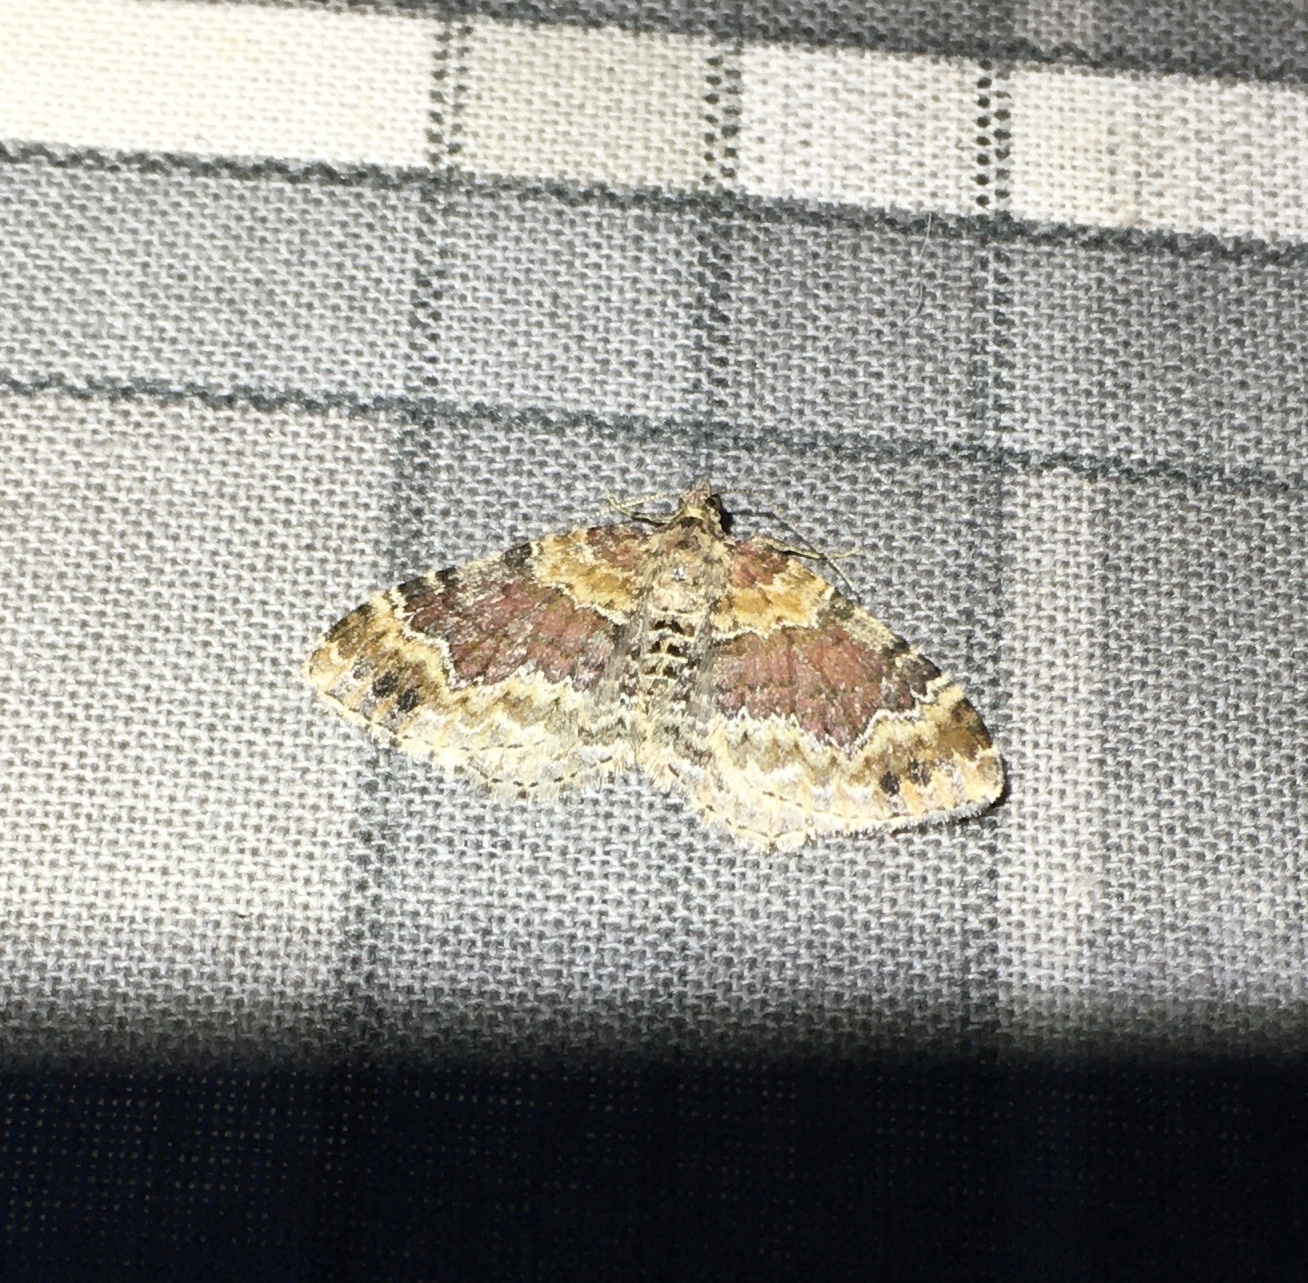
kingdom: Animalia
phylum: Arthropoda
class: Insecta
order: Lepidoptera
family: Geometridae
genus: Xanthorhoe
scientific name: Xanthorhoe spadicearia
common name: Red twin-spot carpet
